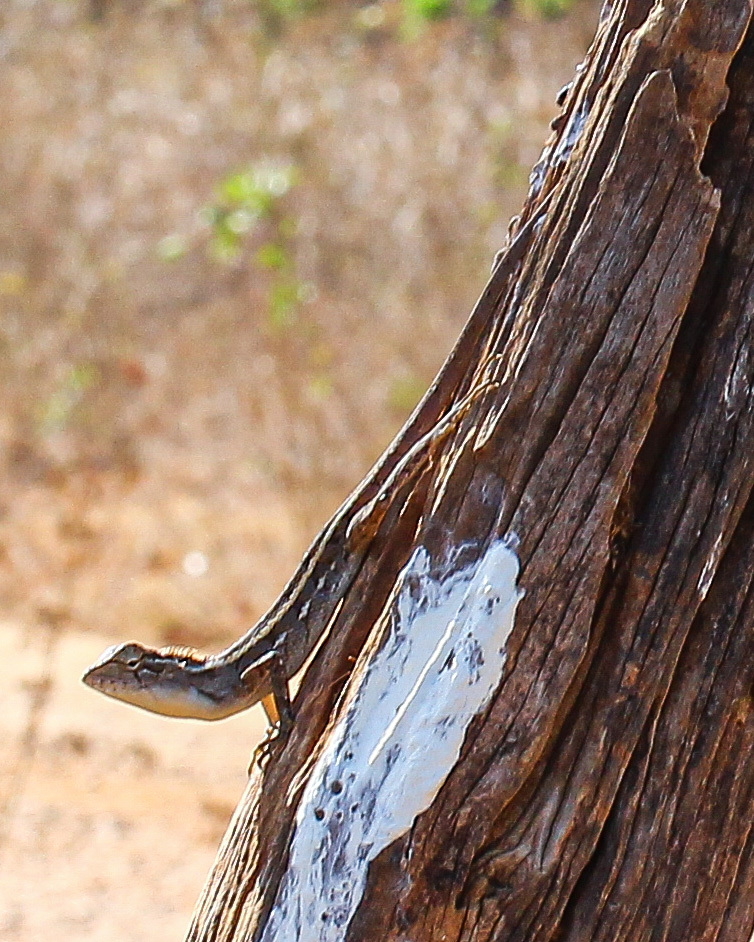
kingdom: Animalia
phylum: Chordata
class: Squamata
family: Agamidae
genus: Calotes
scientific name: Calotes versicolor
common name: Oriental garden lizard
